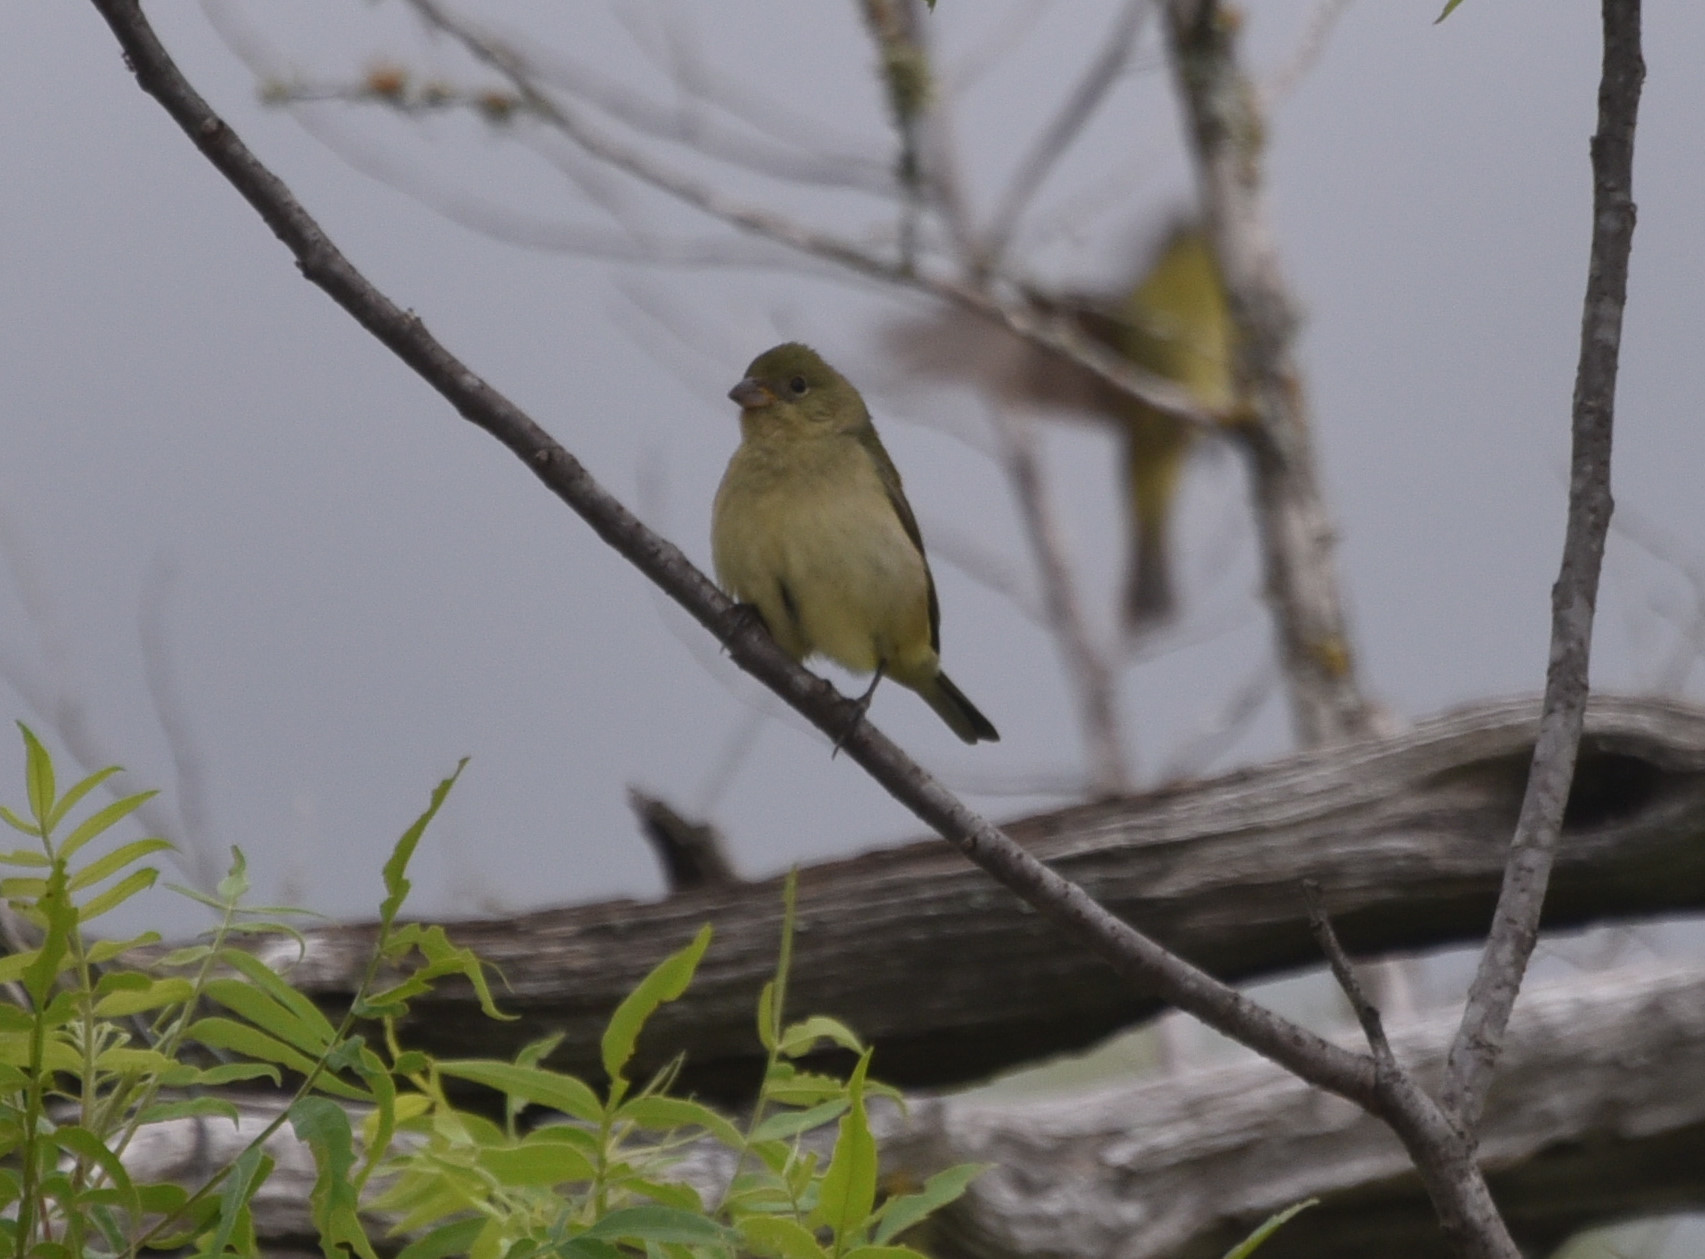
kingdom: Animalia
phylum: Chordata
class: Aves
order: Passeriformes
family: Cardinalidae
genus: Passerina
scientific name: Passerina ciris
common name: Painted bunting
